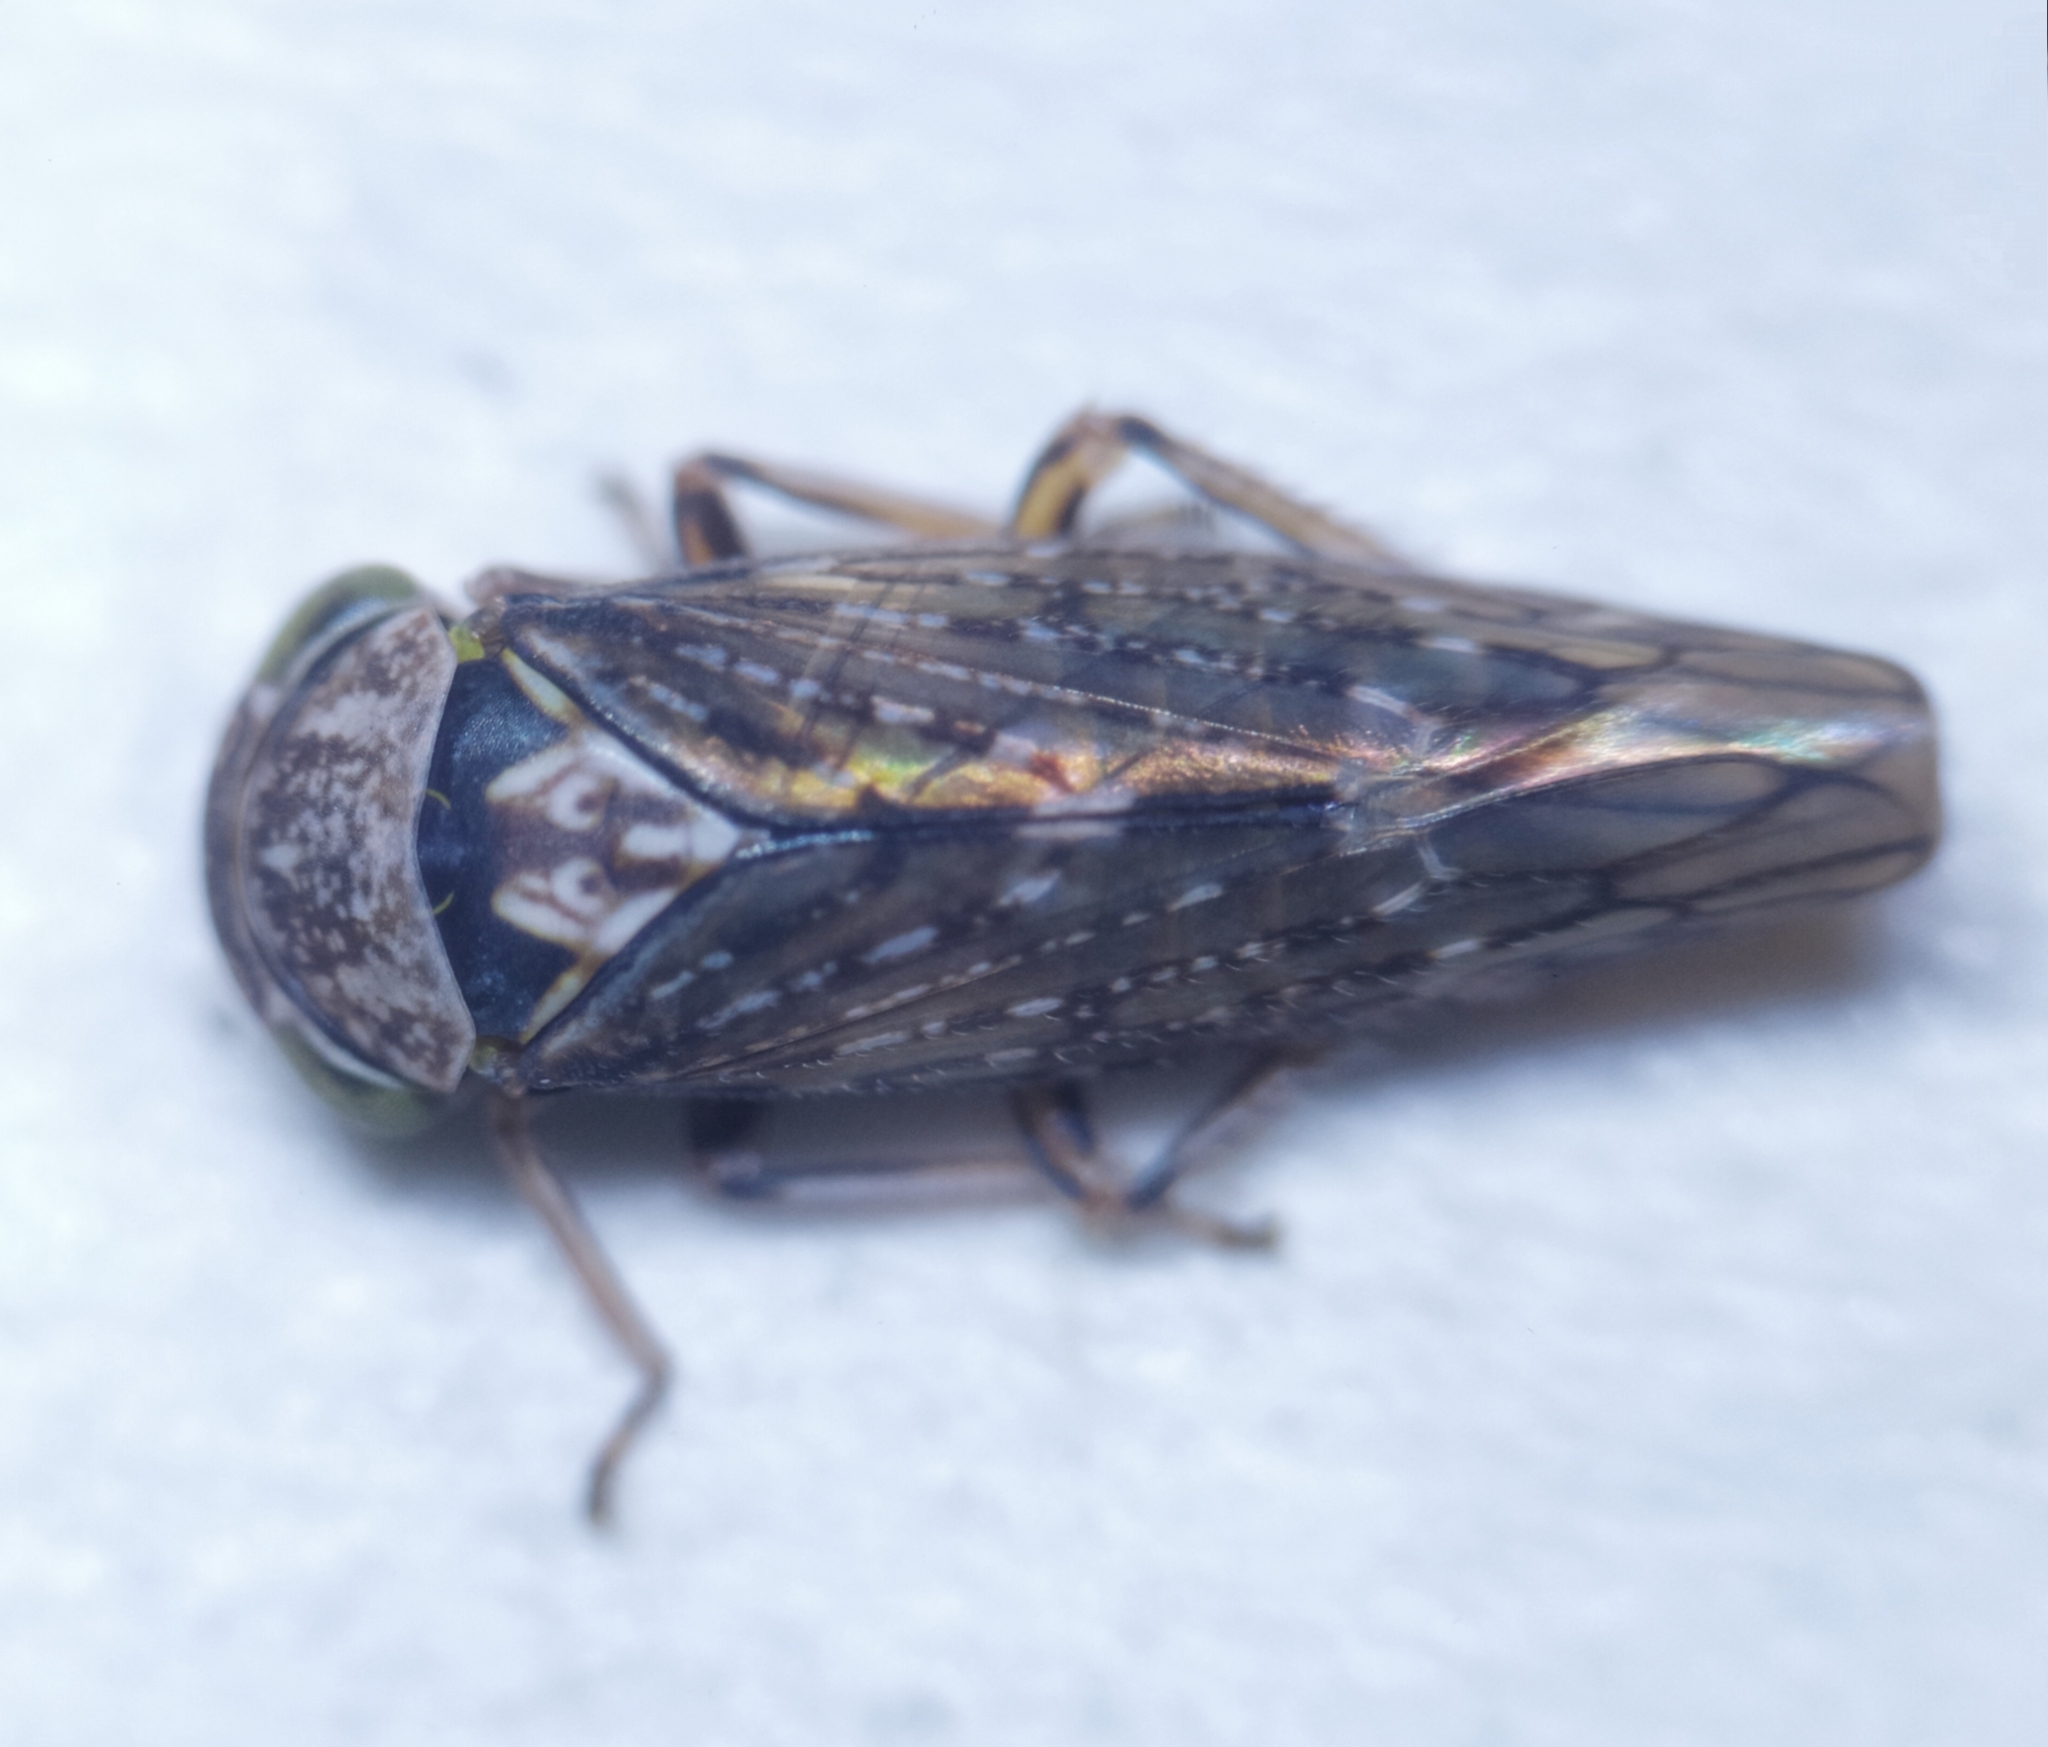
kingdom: Animalia
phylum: Arthropoda
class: Insecta
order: Hemiptera
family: Cicadellidae
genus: Acericerus
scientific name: Acericerus ribauti
